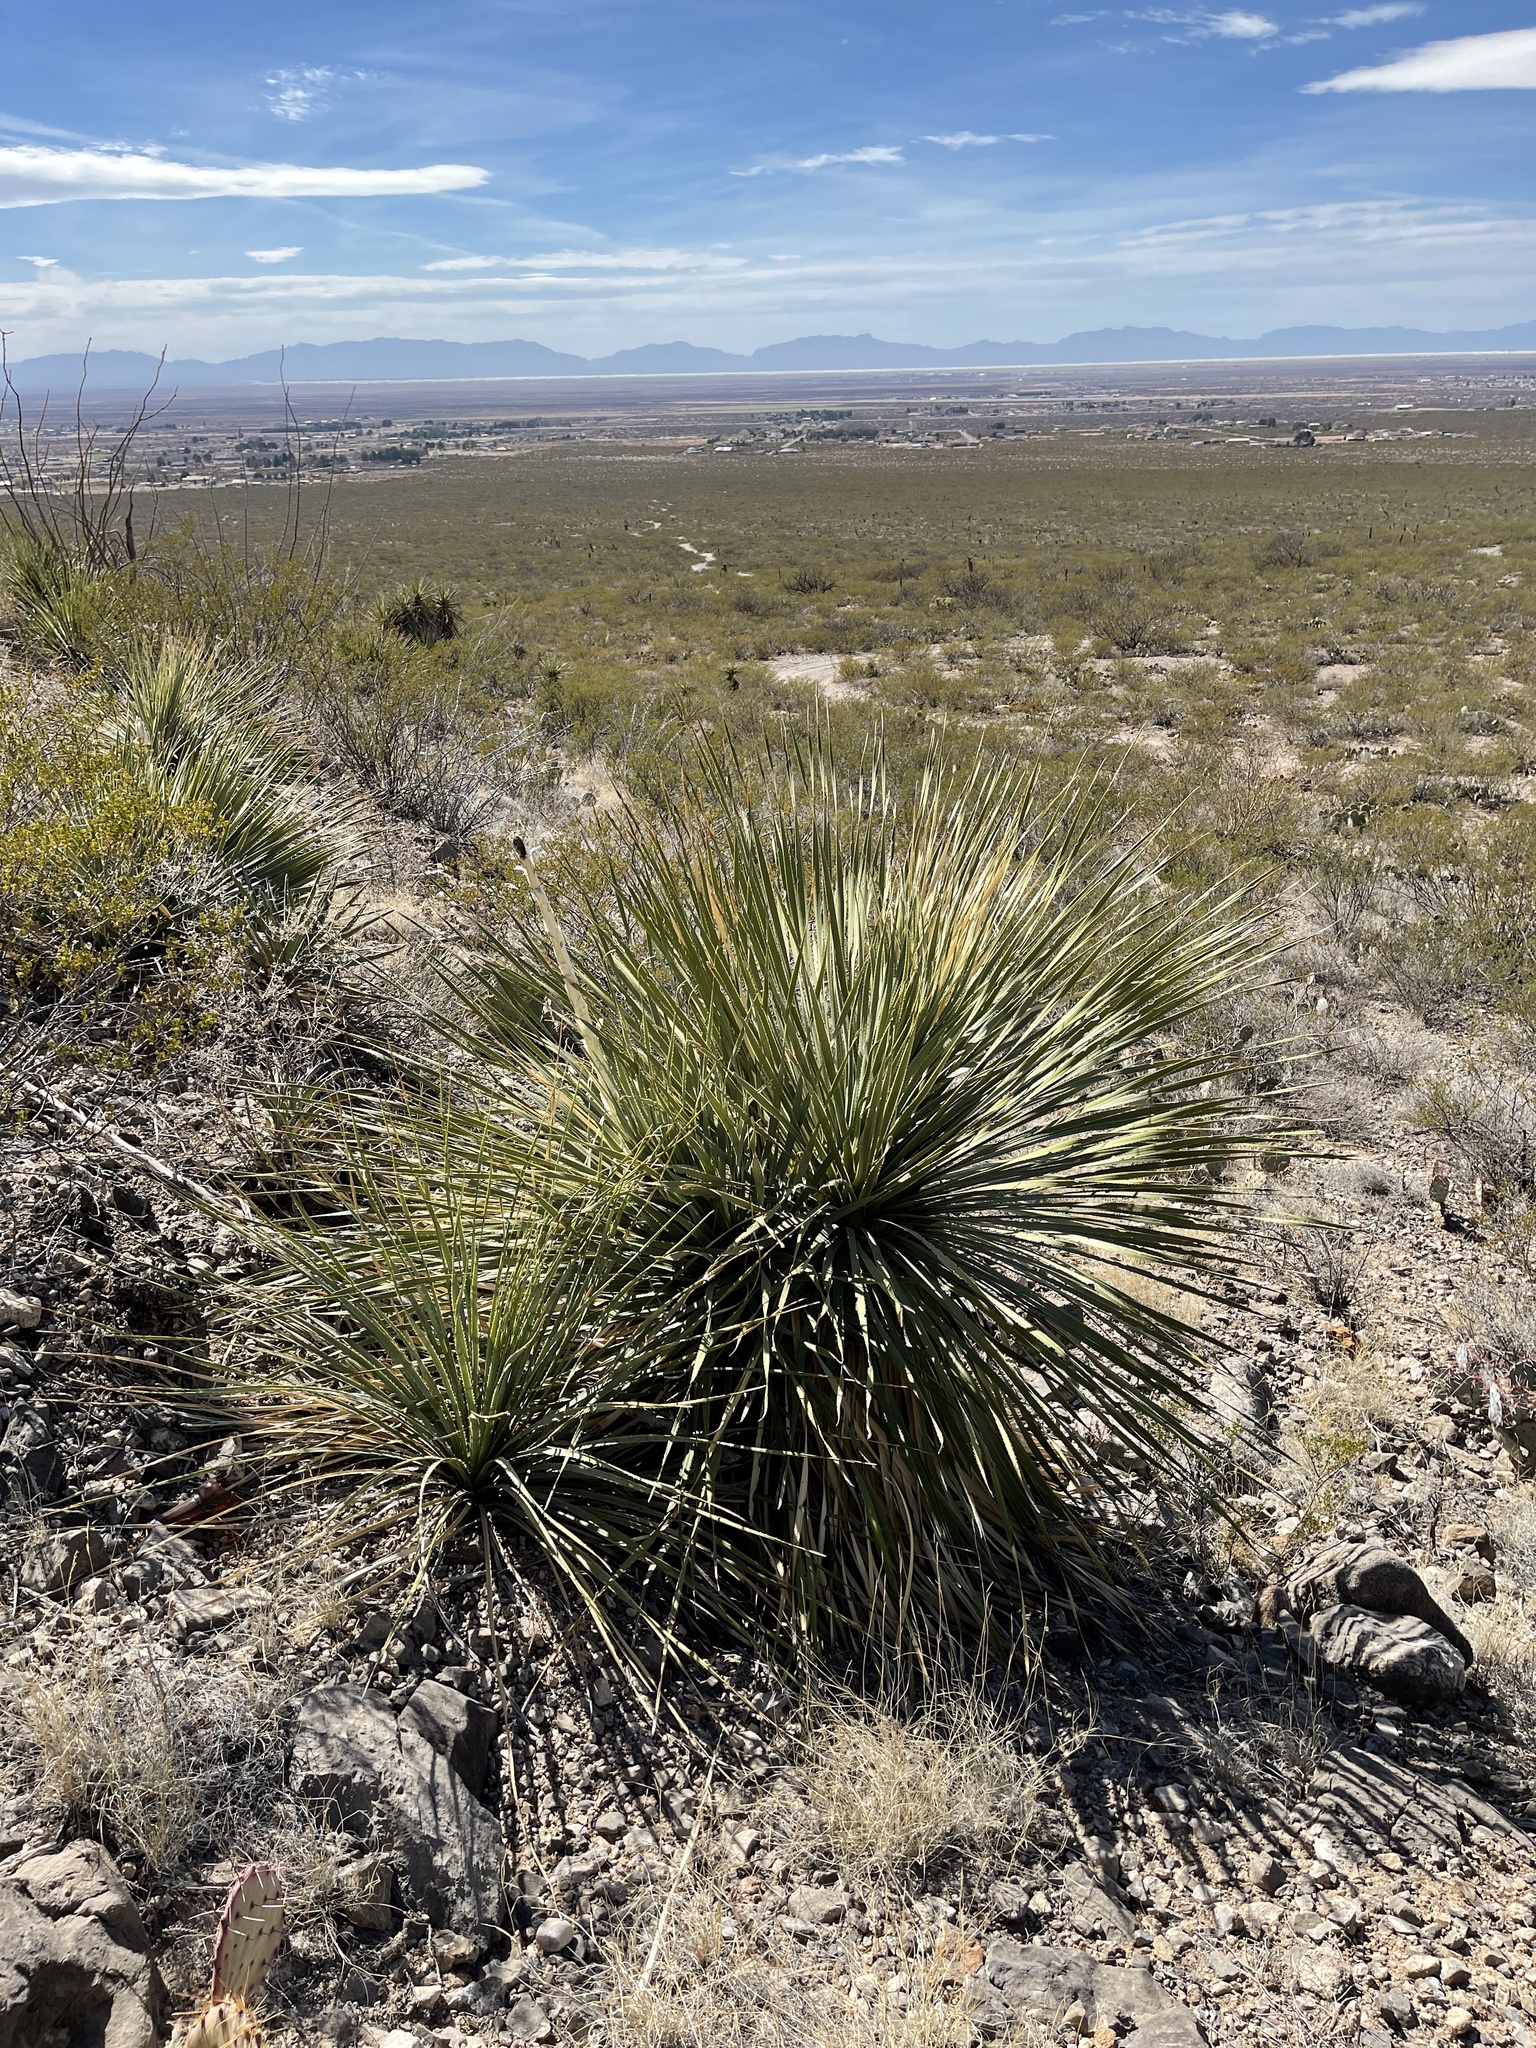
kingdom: Plantae
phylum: Tracheophyta
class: Liliopsida
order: Asparagales
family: Asparagaceae
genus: Dasylirion
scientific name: Dasylirion wheeleri
